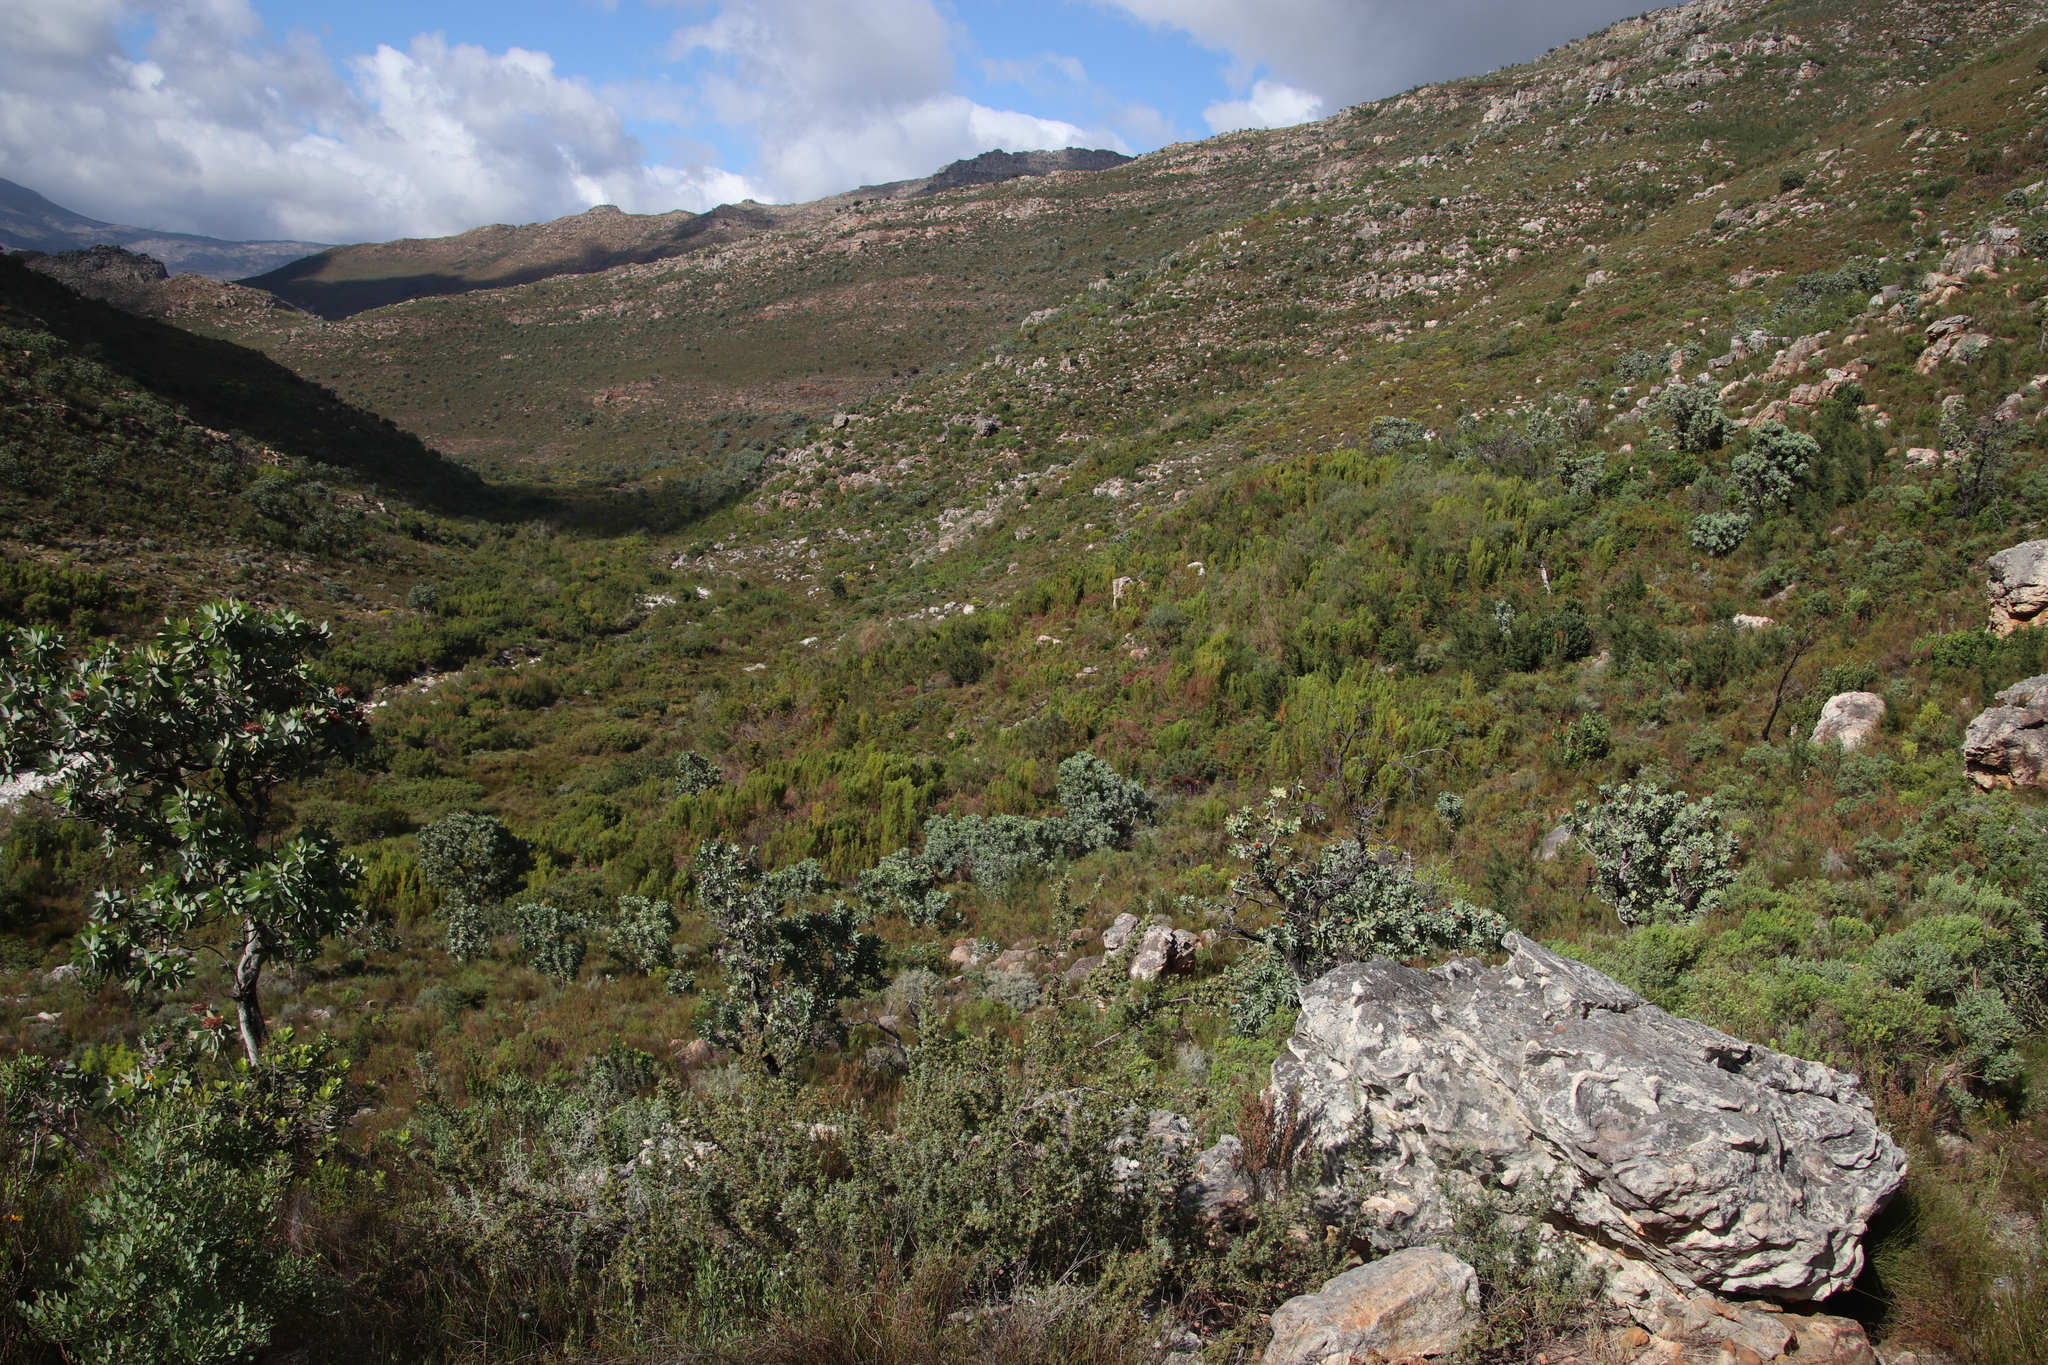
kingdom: Plantae
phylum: Tracheophyta
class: Magnoliopsida
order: Proteales
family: Proteaceae
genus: Leucadendron
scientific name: Leucadendron salicifolium
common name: Common stream conebush
